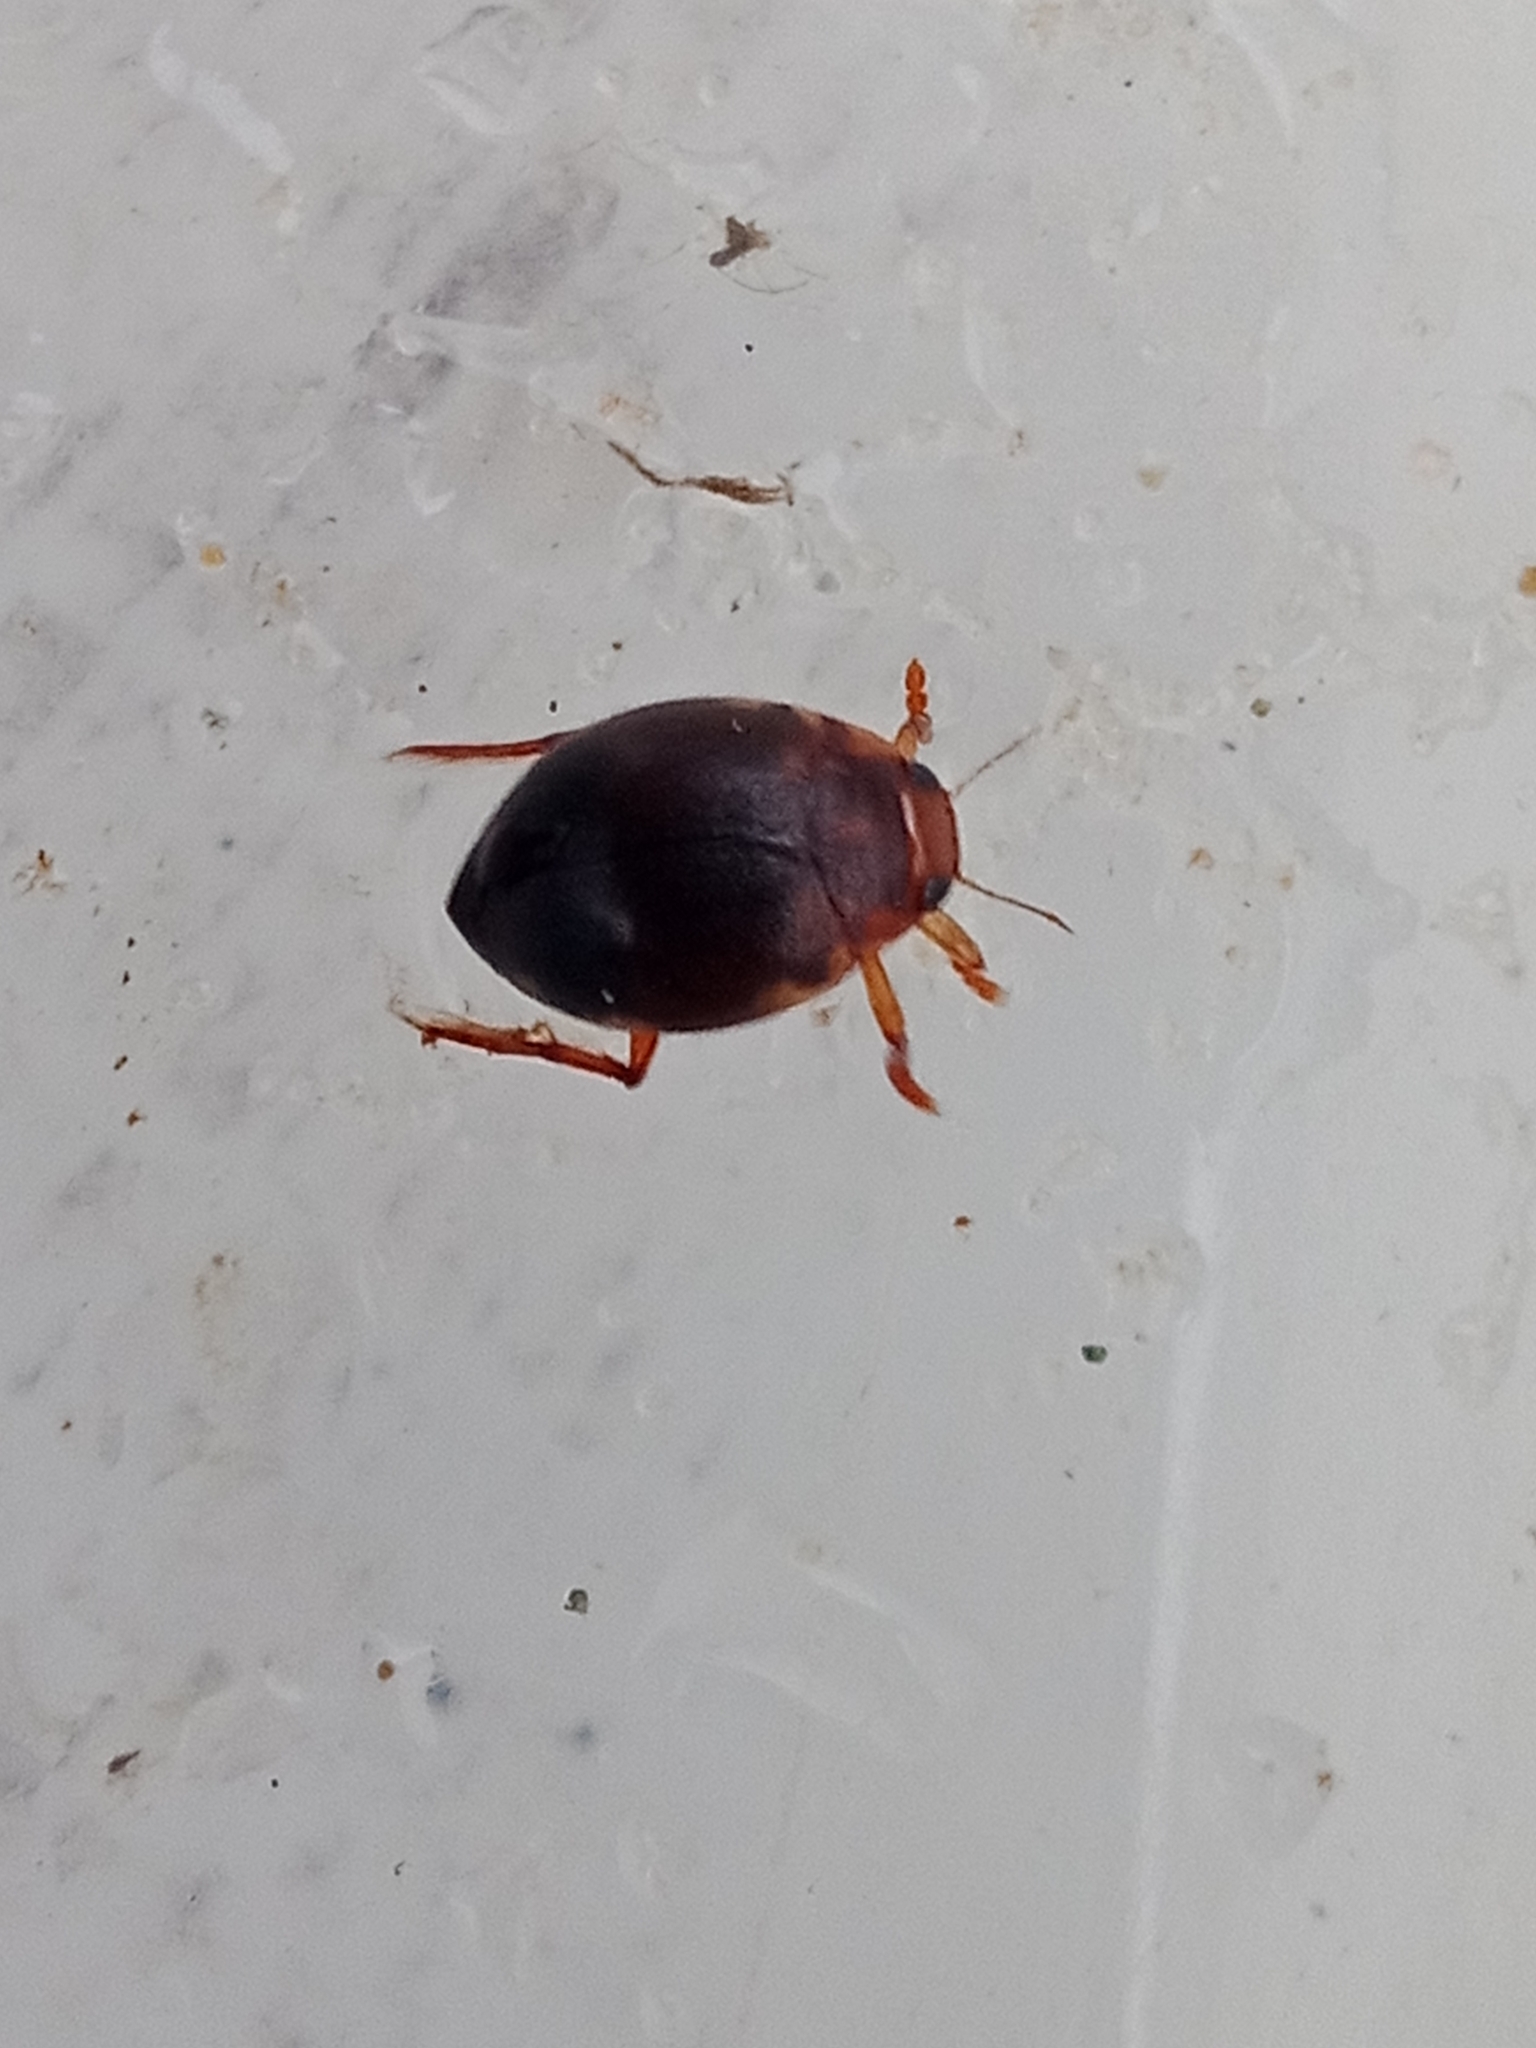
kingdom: Animalia
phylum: Arthropoda
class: Insecta
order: Coleoptera
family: Dytiscidae
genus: Hyphydrus
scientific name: Hyphydrus ovatus
